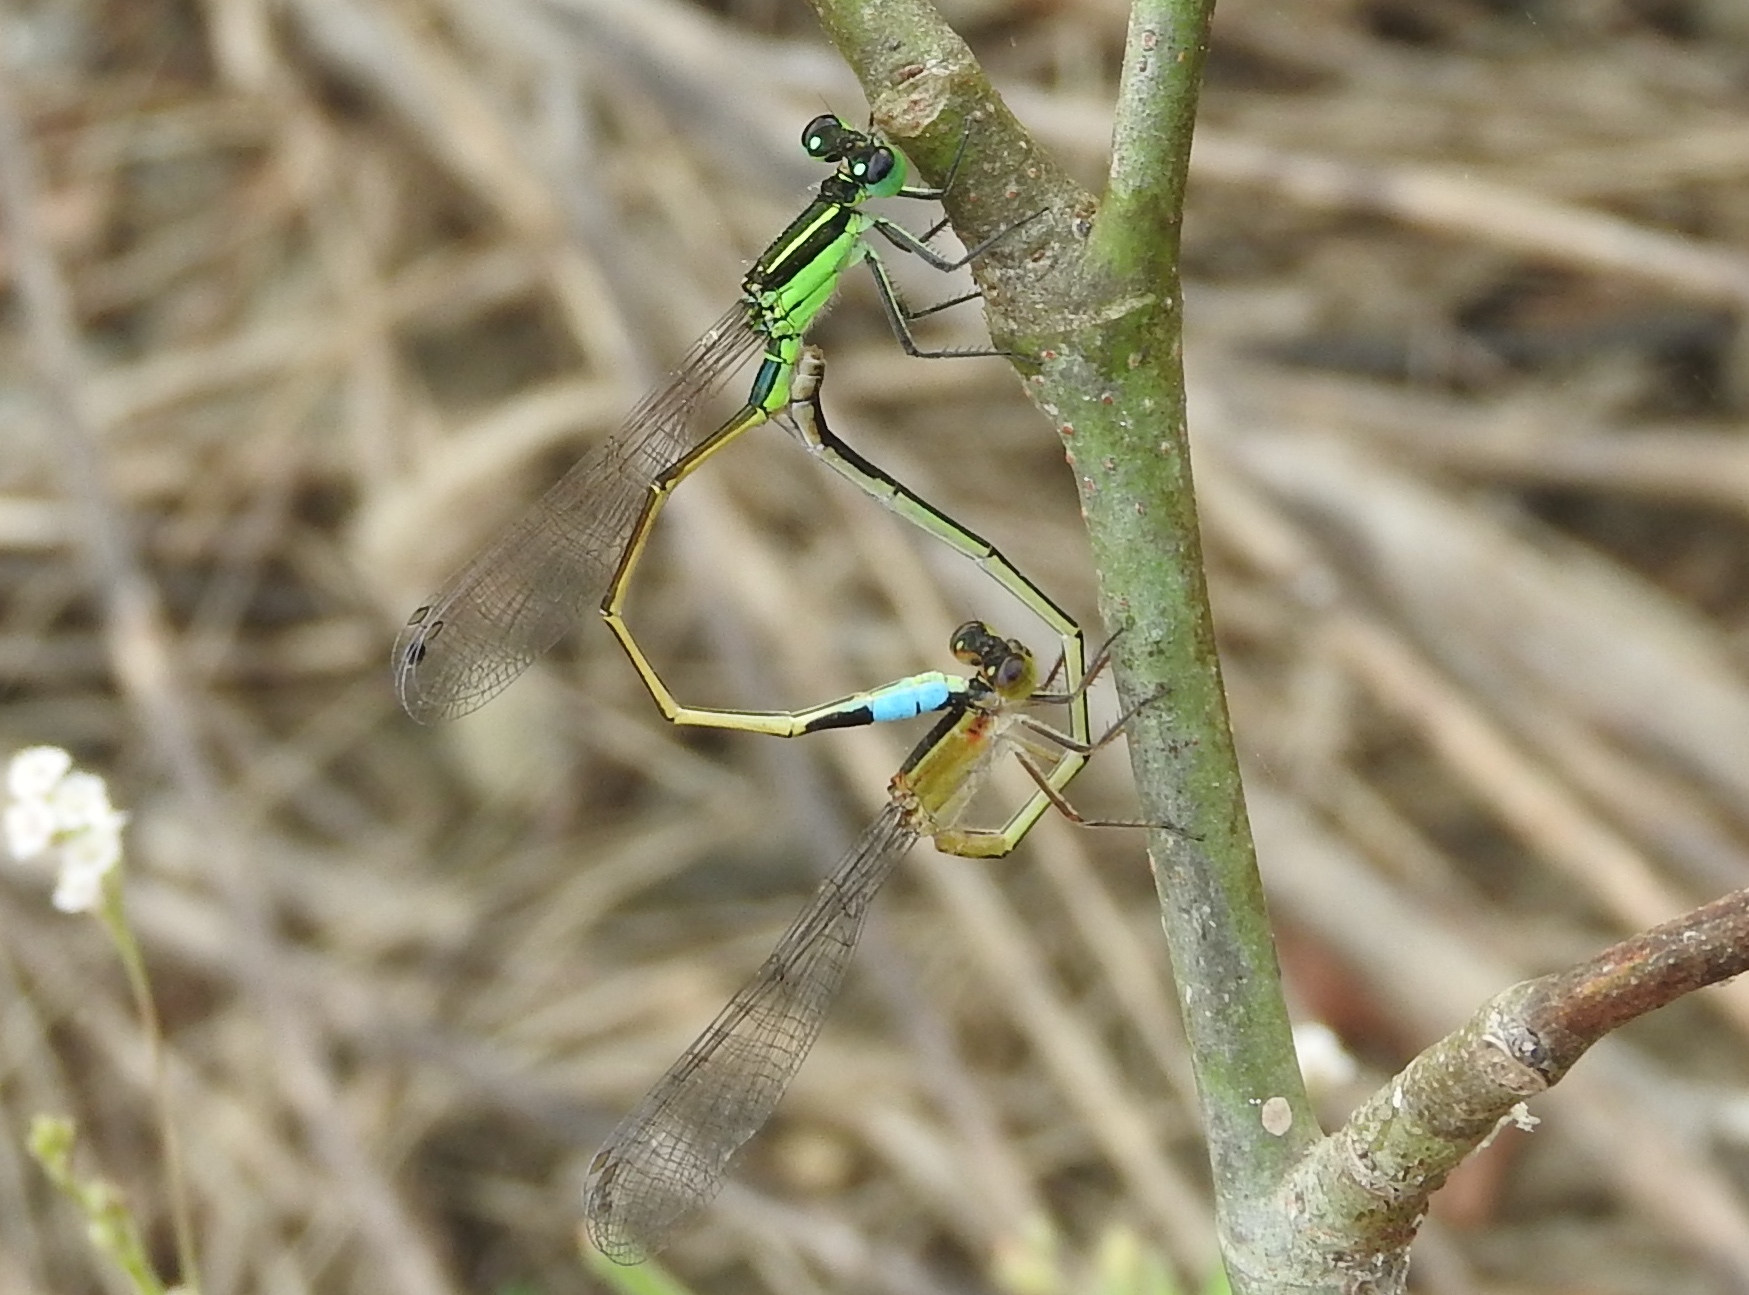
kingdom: Animalia
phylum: Arthropoda
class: Insecta
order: Odonata
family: Coenagrionidae
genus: Ischnura
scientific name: Ischnura ramburii
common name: Rambur's forktail
